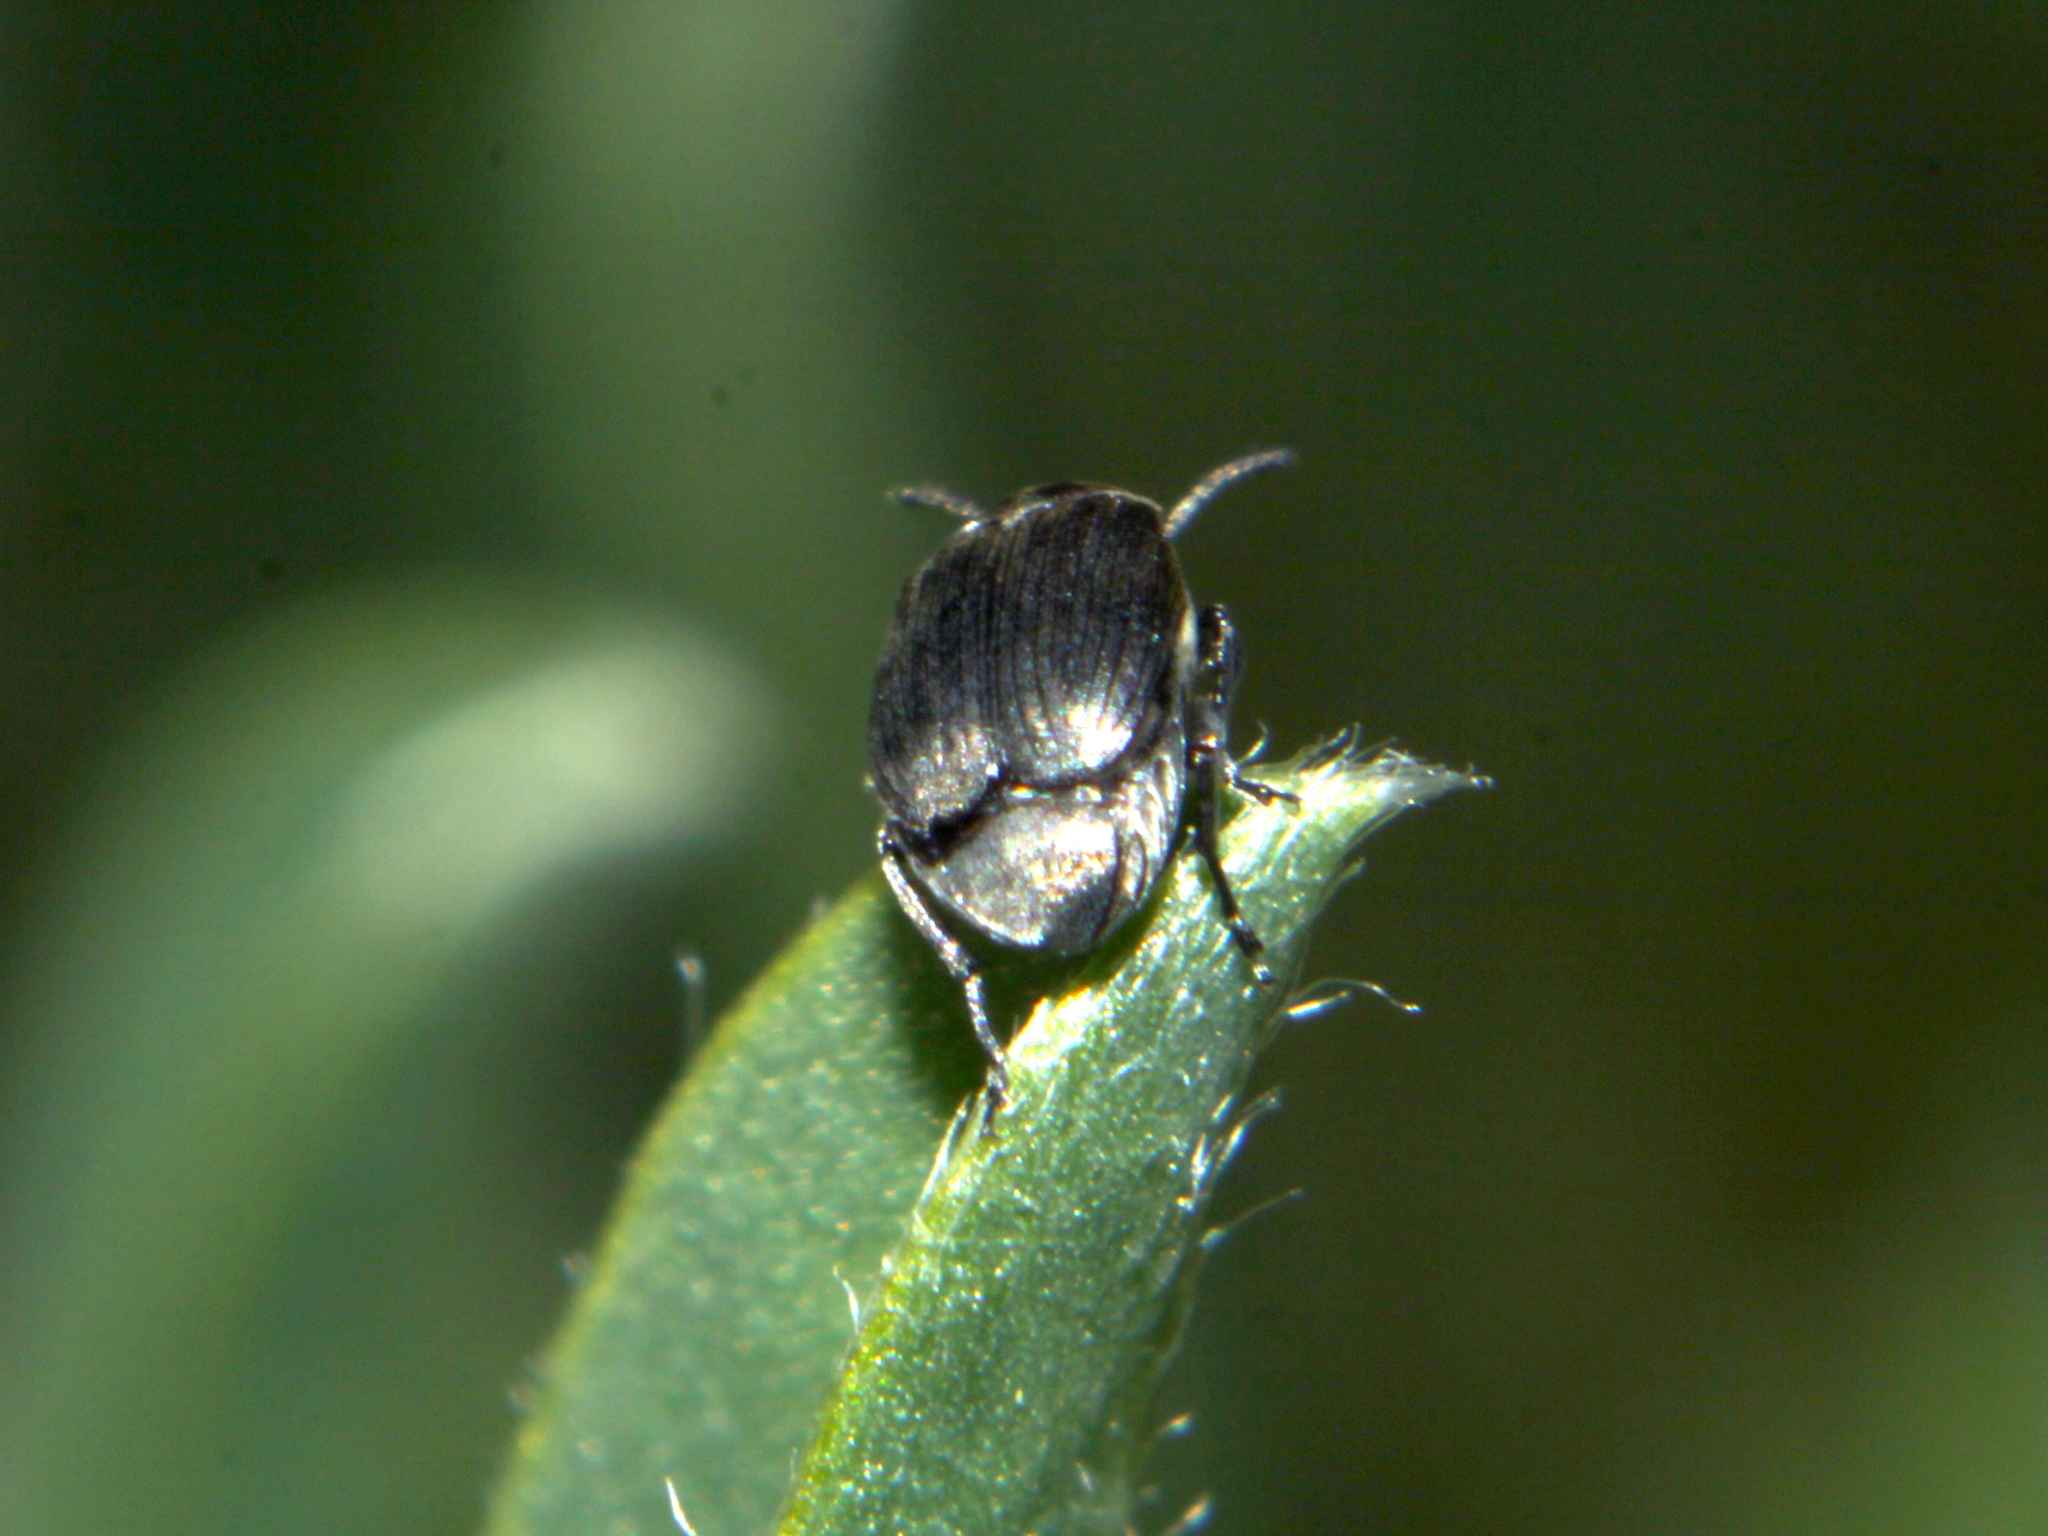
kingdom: Animalia
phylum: Arthropoda
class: Insecta
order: Coleoptera
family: Chrysomelidae
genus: Bruchidius
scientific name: Bruchidius villosus
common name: Scotch broom bruchid
